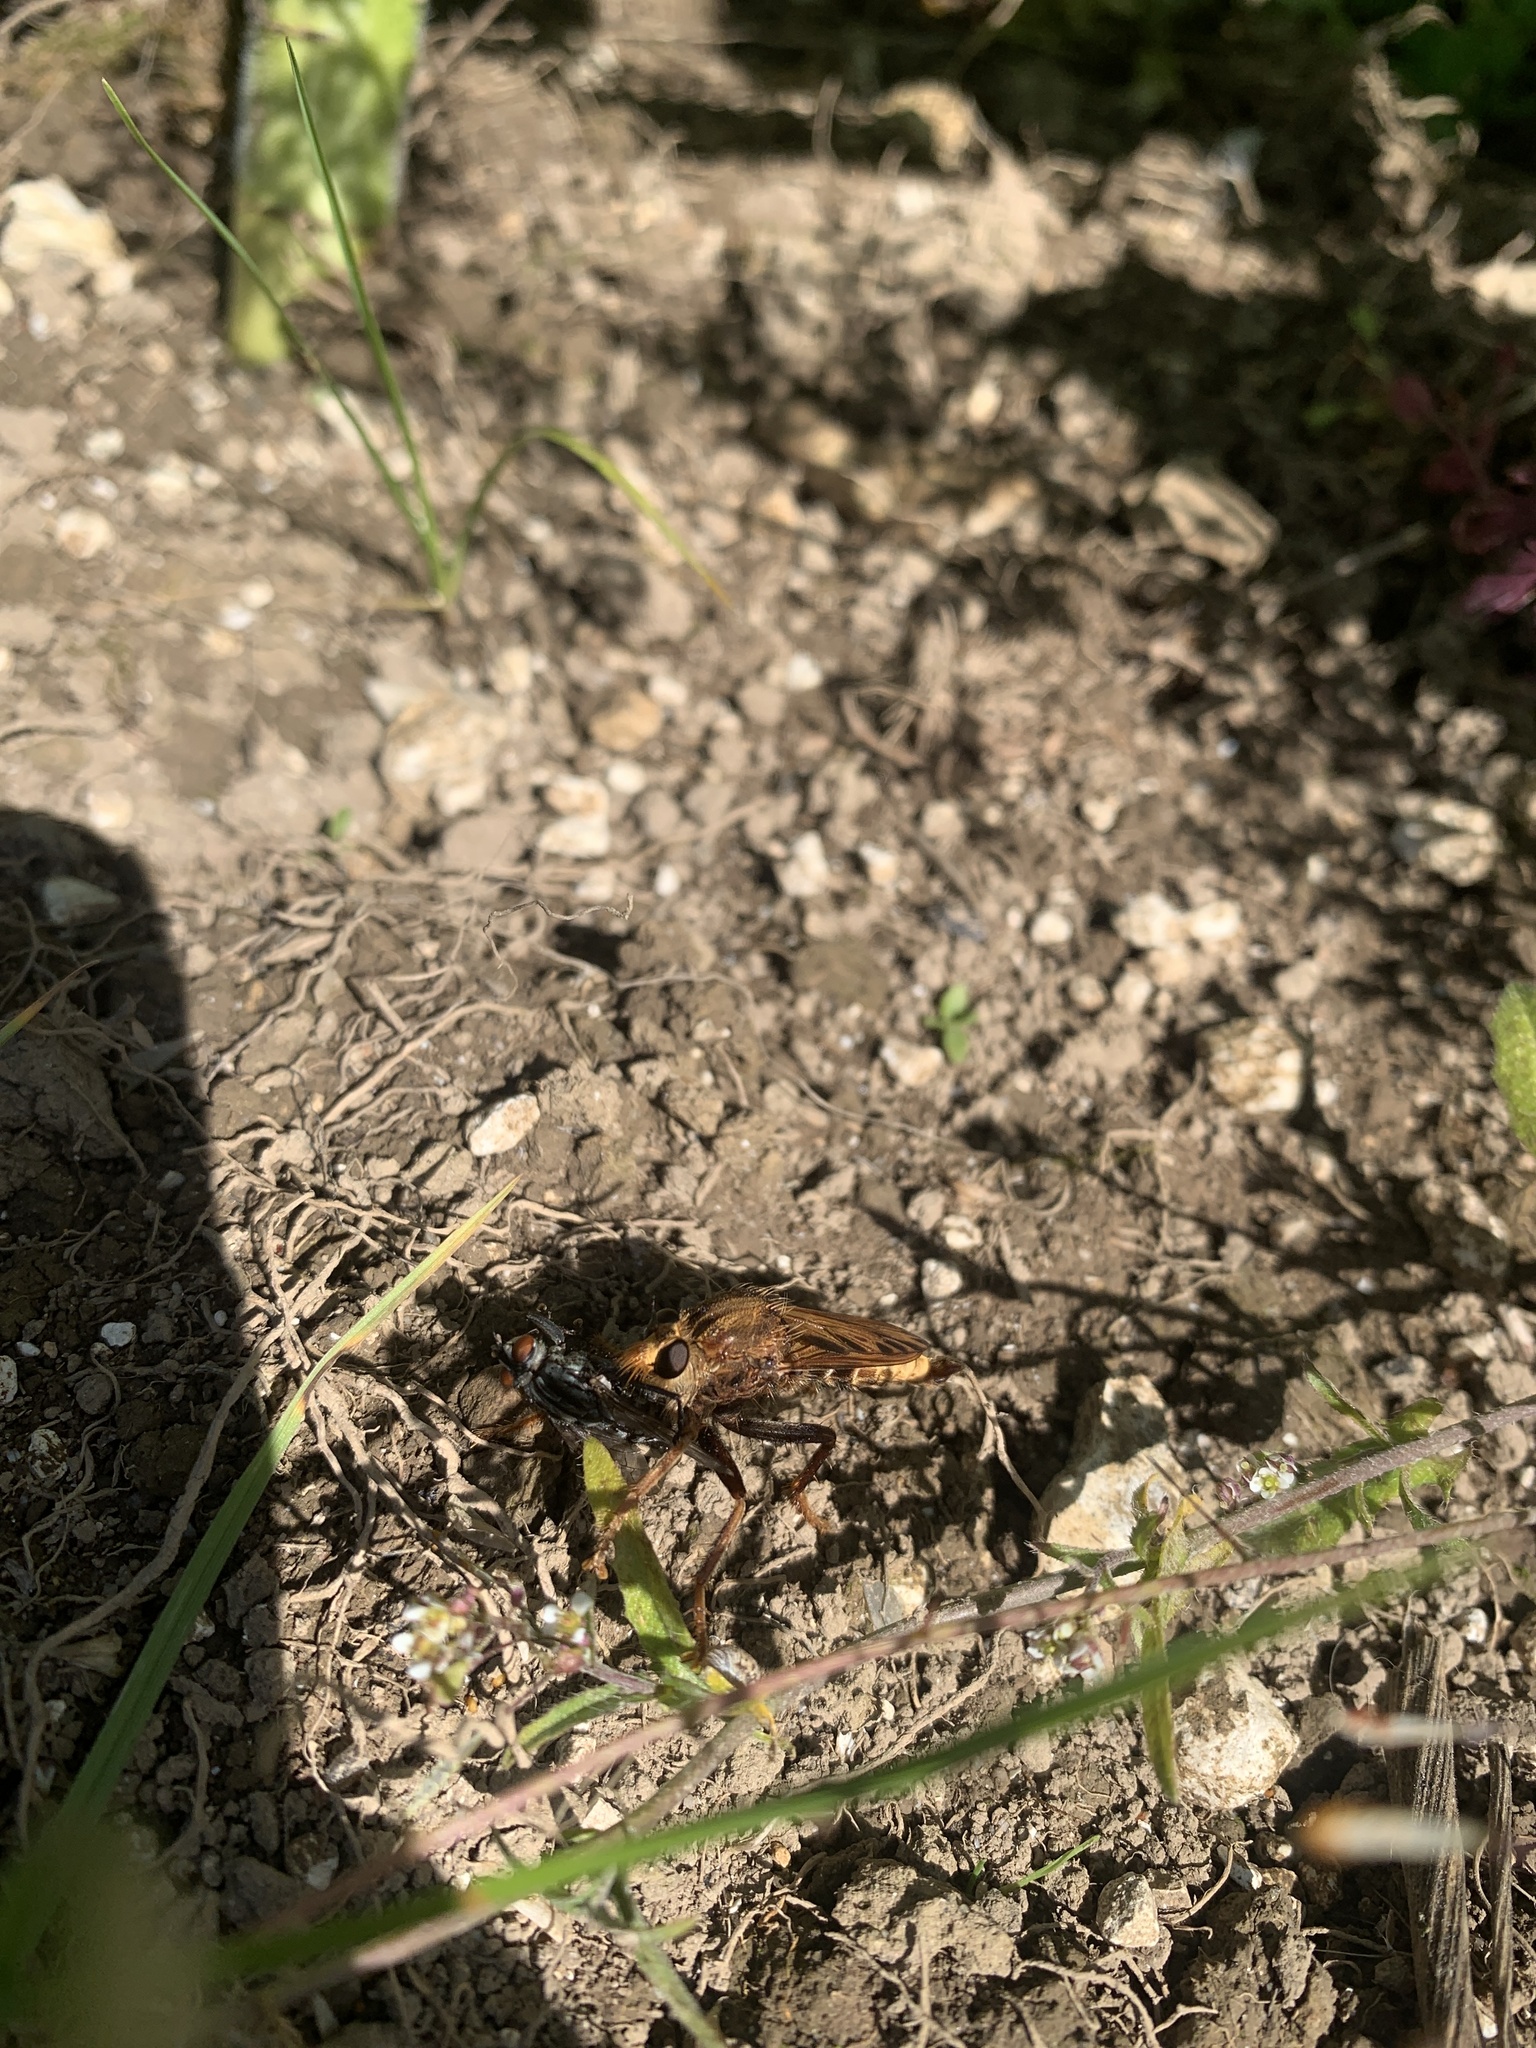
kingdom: Animalia
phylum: Arthropoda
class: Insecta
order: Diptera
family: Asilidae
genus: Asilus
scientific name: Asilus crabroniformis
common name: Hornet robberfly
